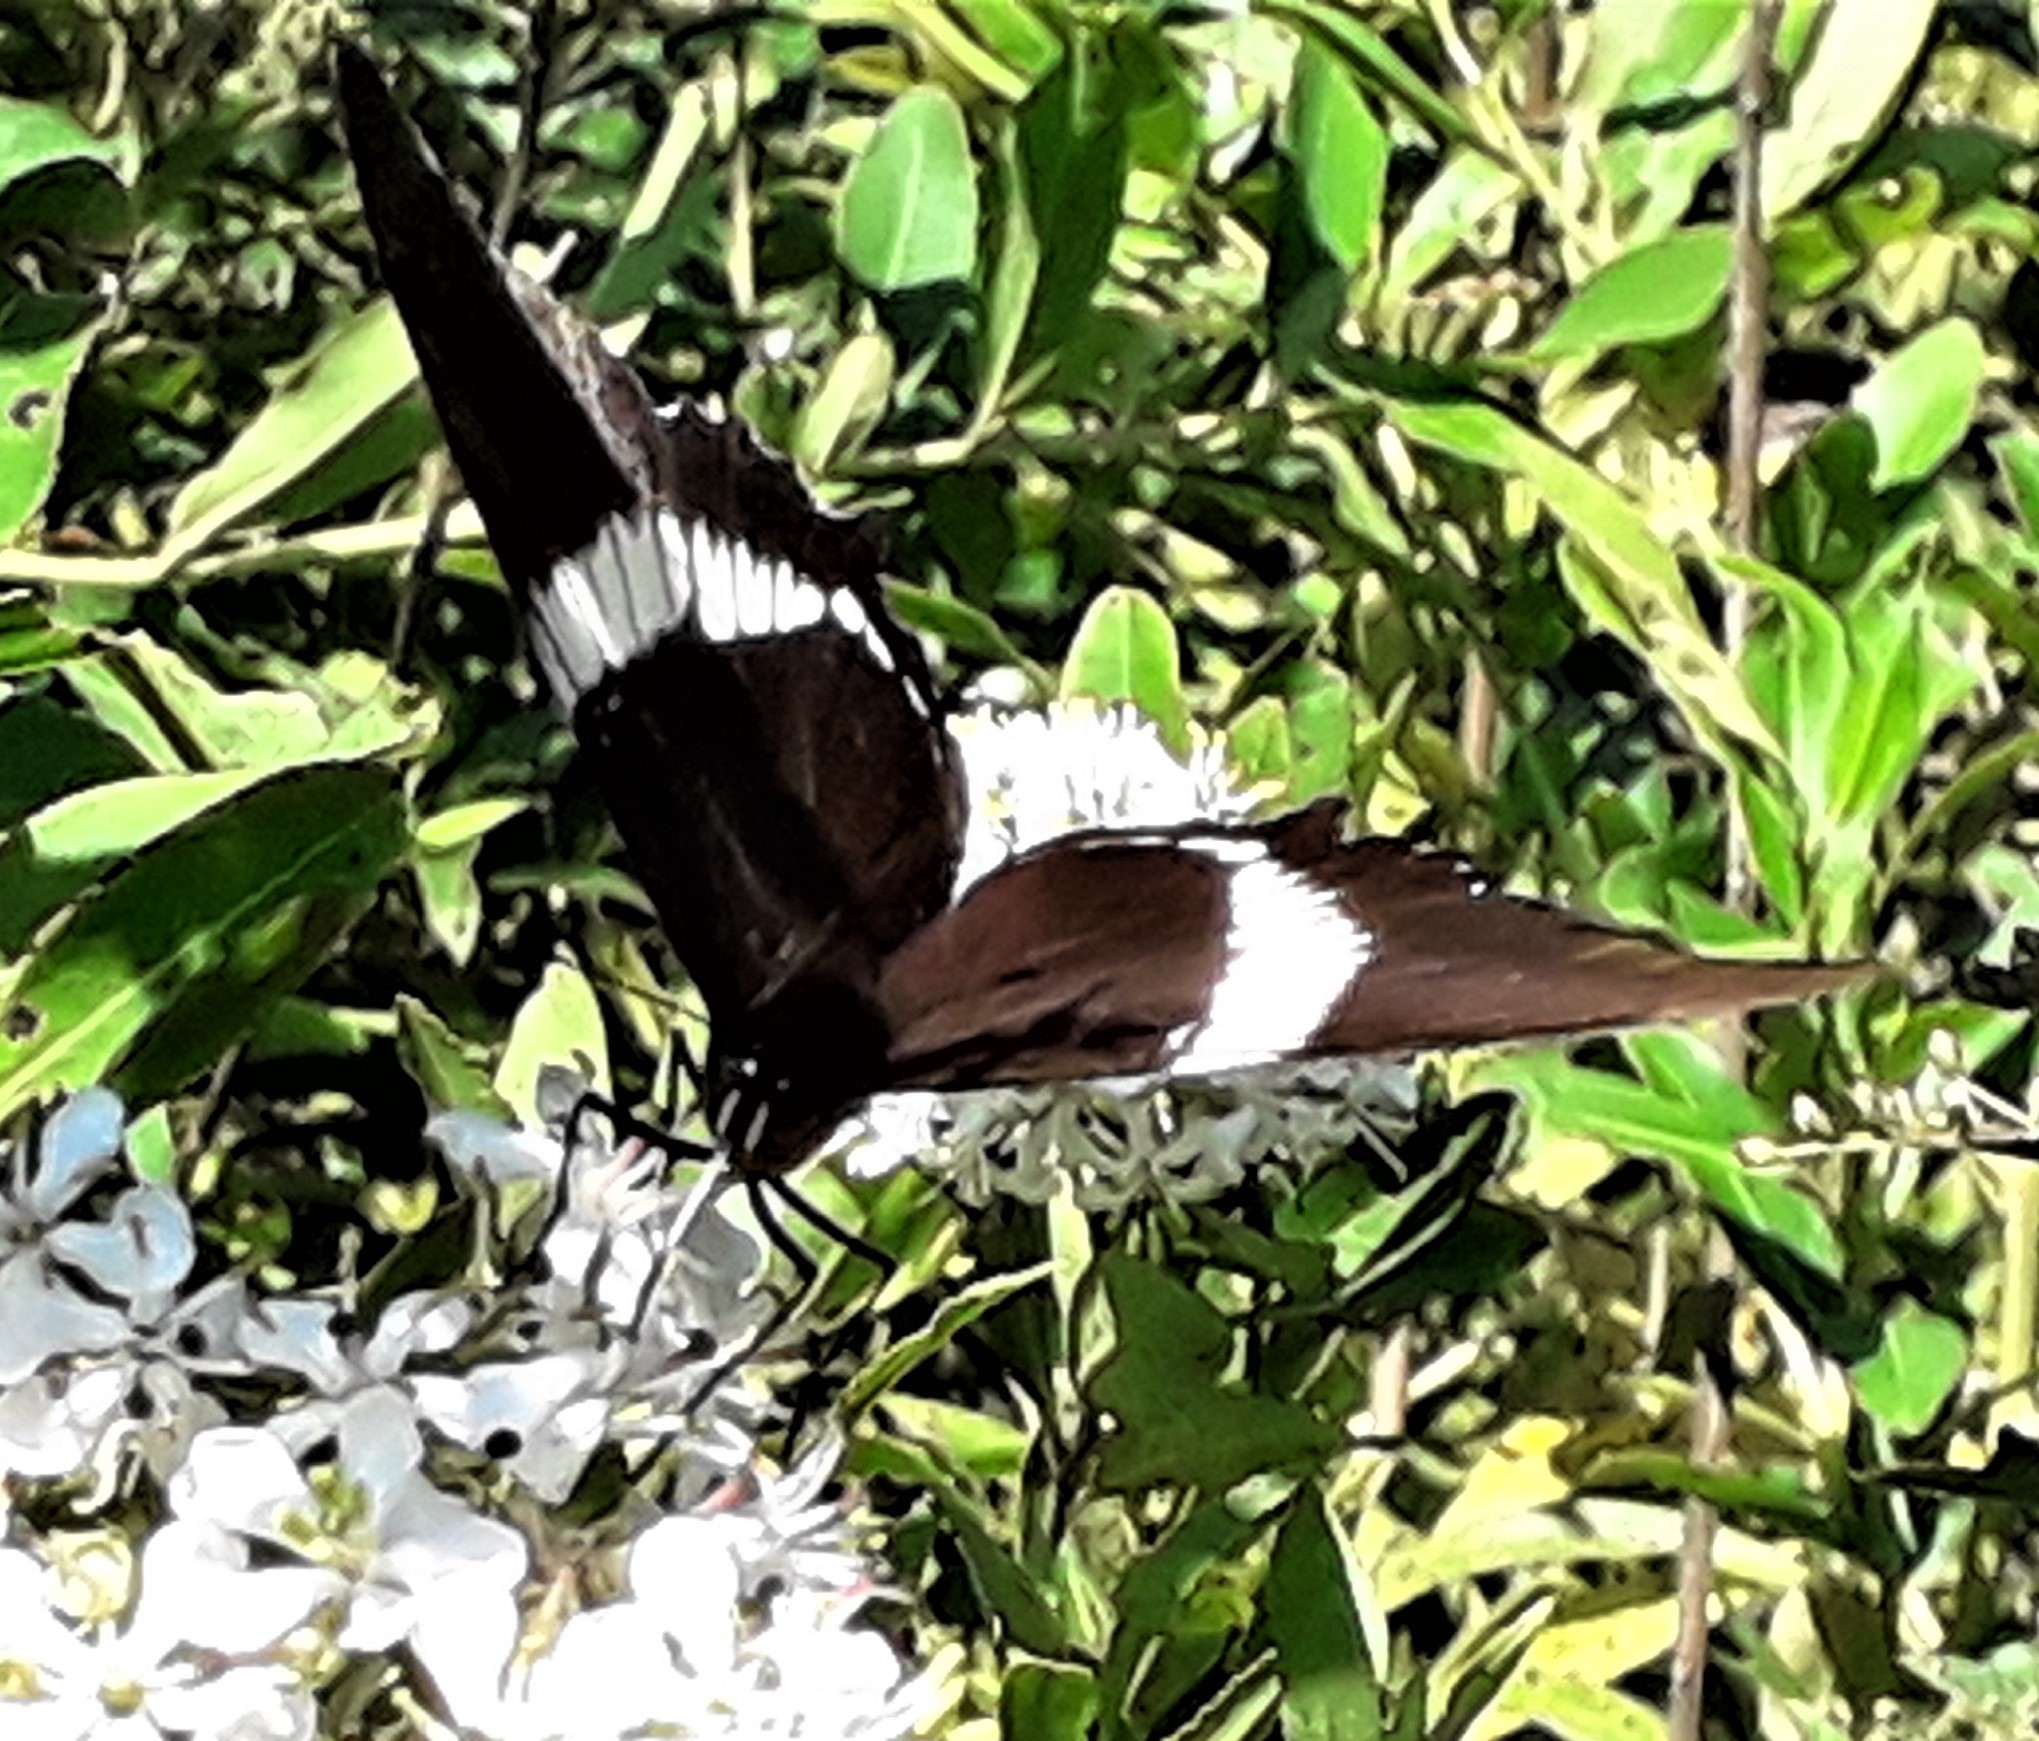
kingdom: Animalia
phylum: Arthropoda
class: Insecta
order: Lepidoptera
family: Nymphalidae
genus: Siproeta
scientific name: Siproeta epaphus
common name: Rusty-tipped page
